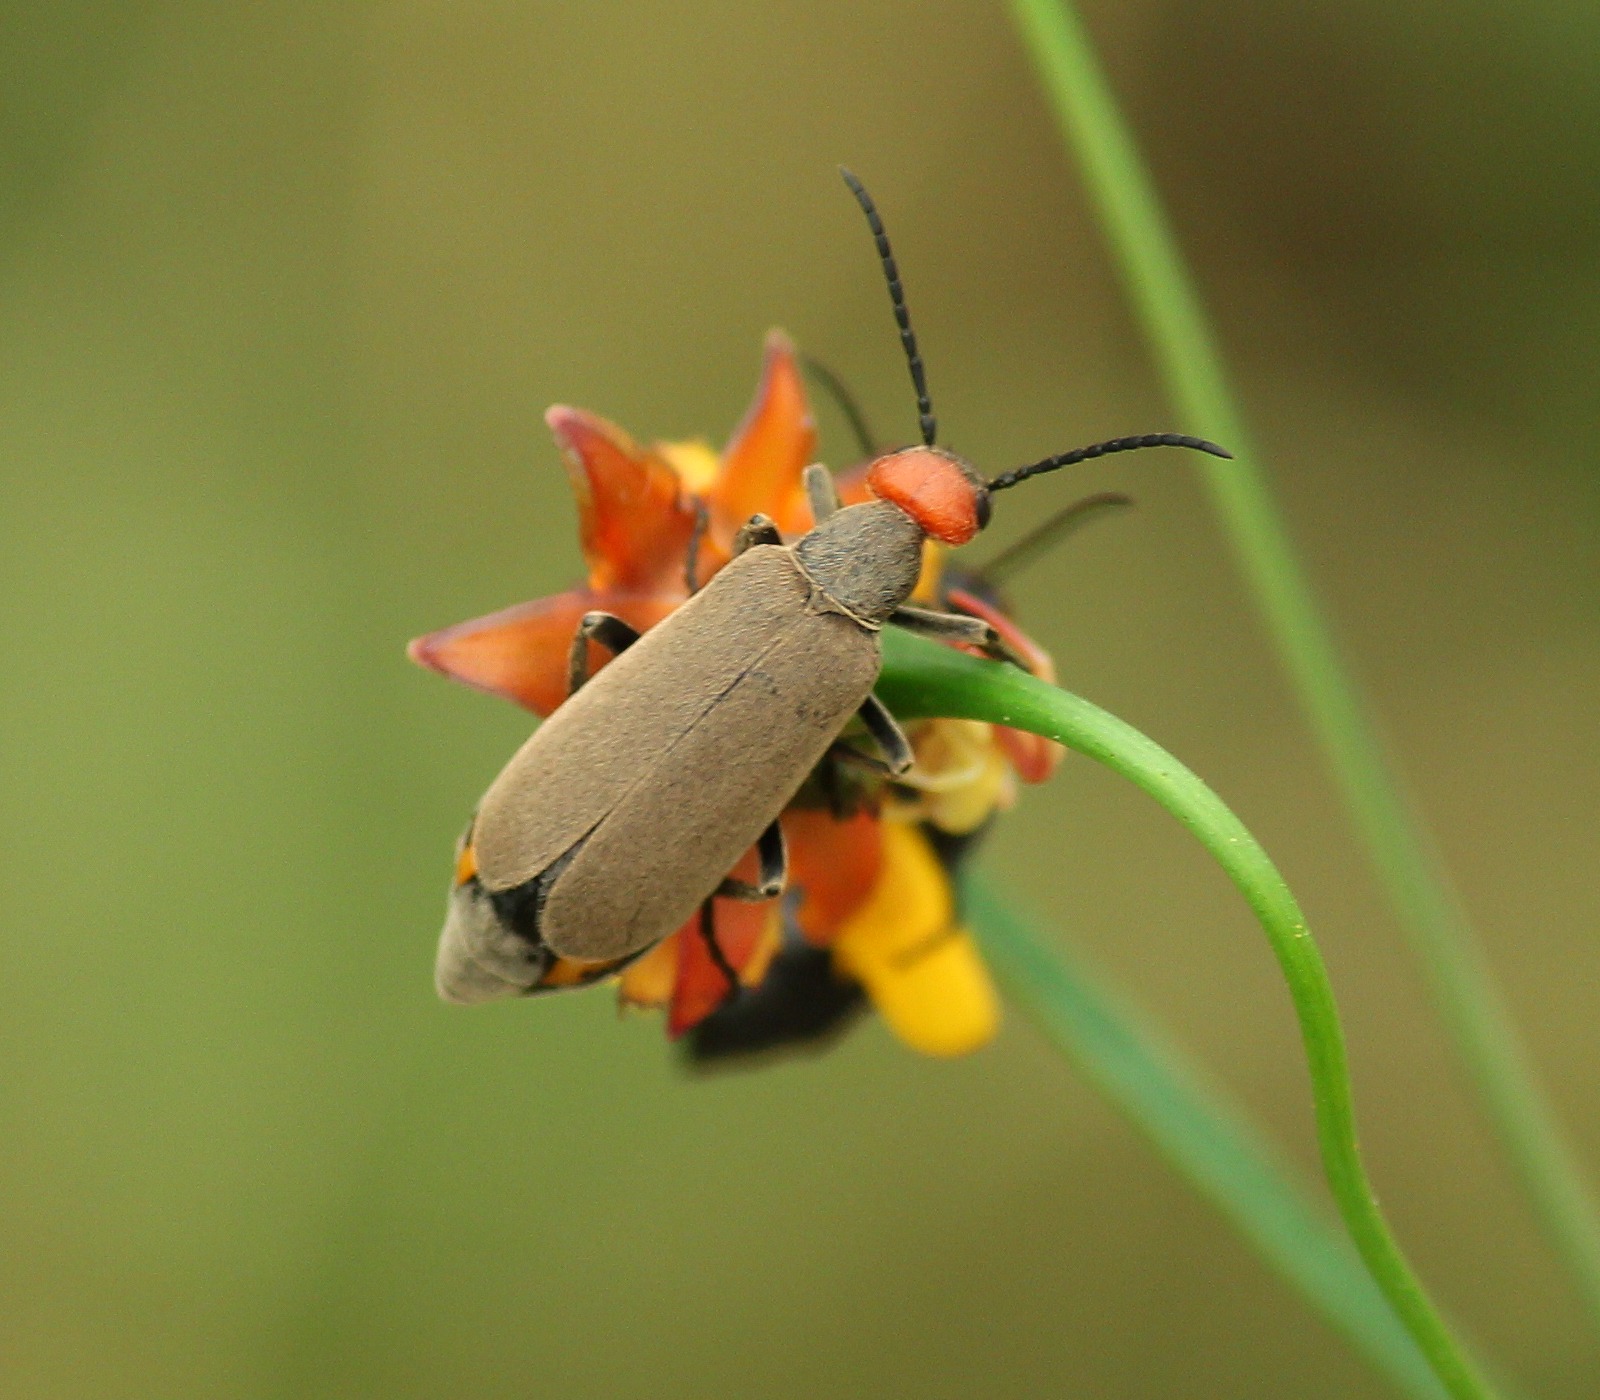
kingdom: Animalia
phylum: Arthropoda
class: Insecta
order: Coleoptera
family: Meloidae
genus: Epicauta
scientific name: Epicauta atrata
